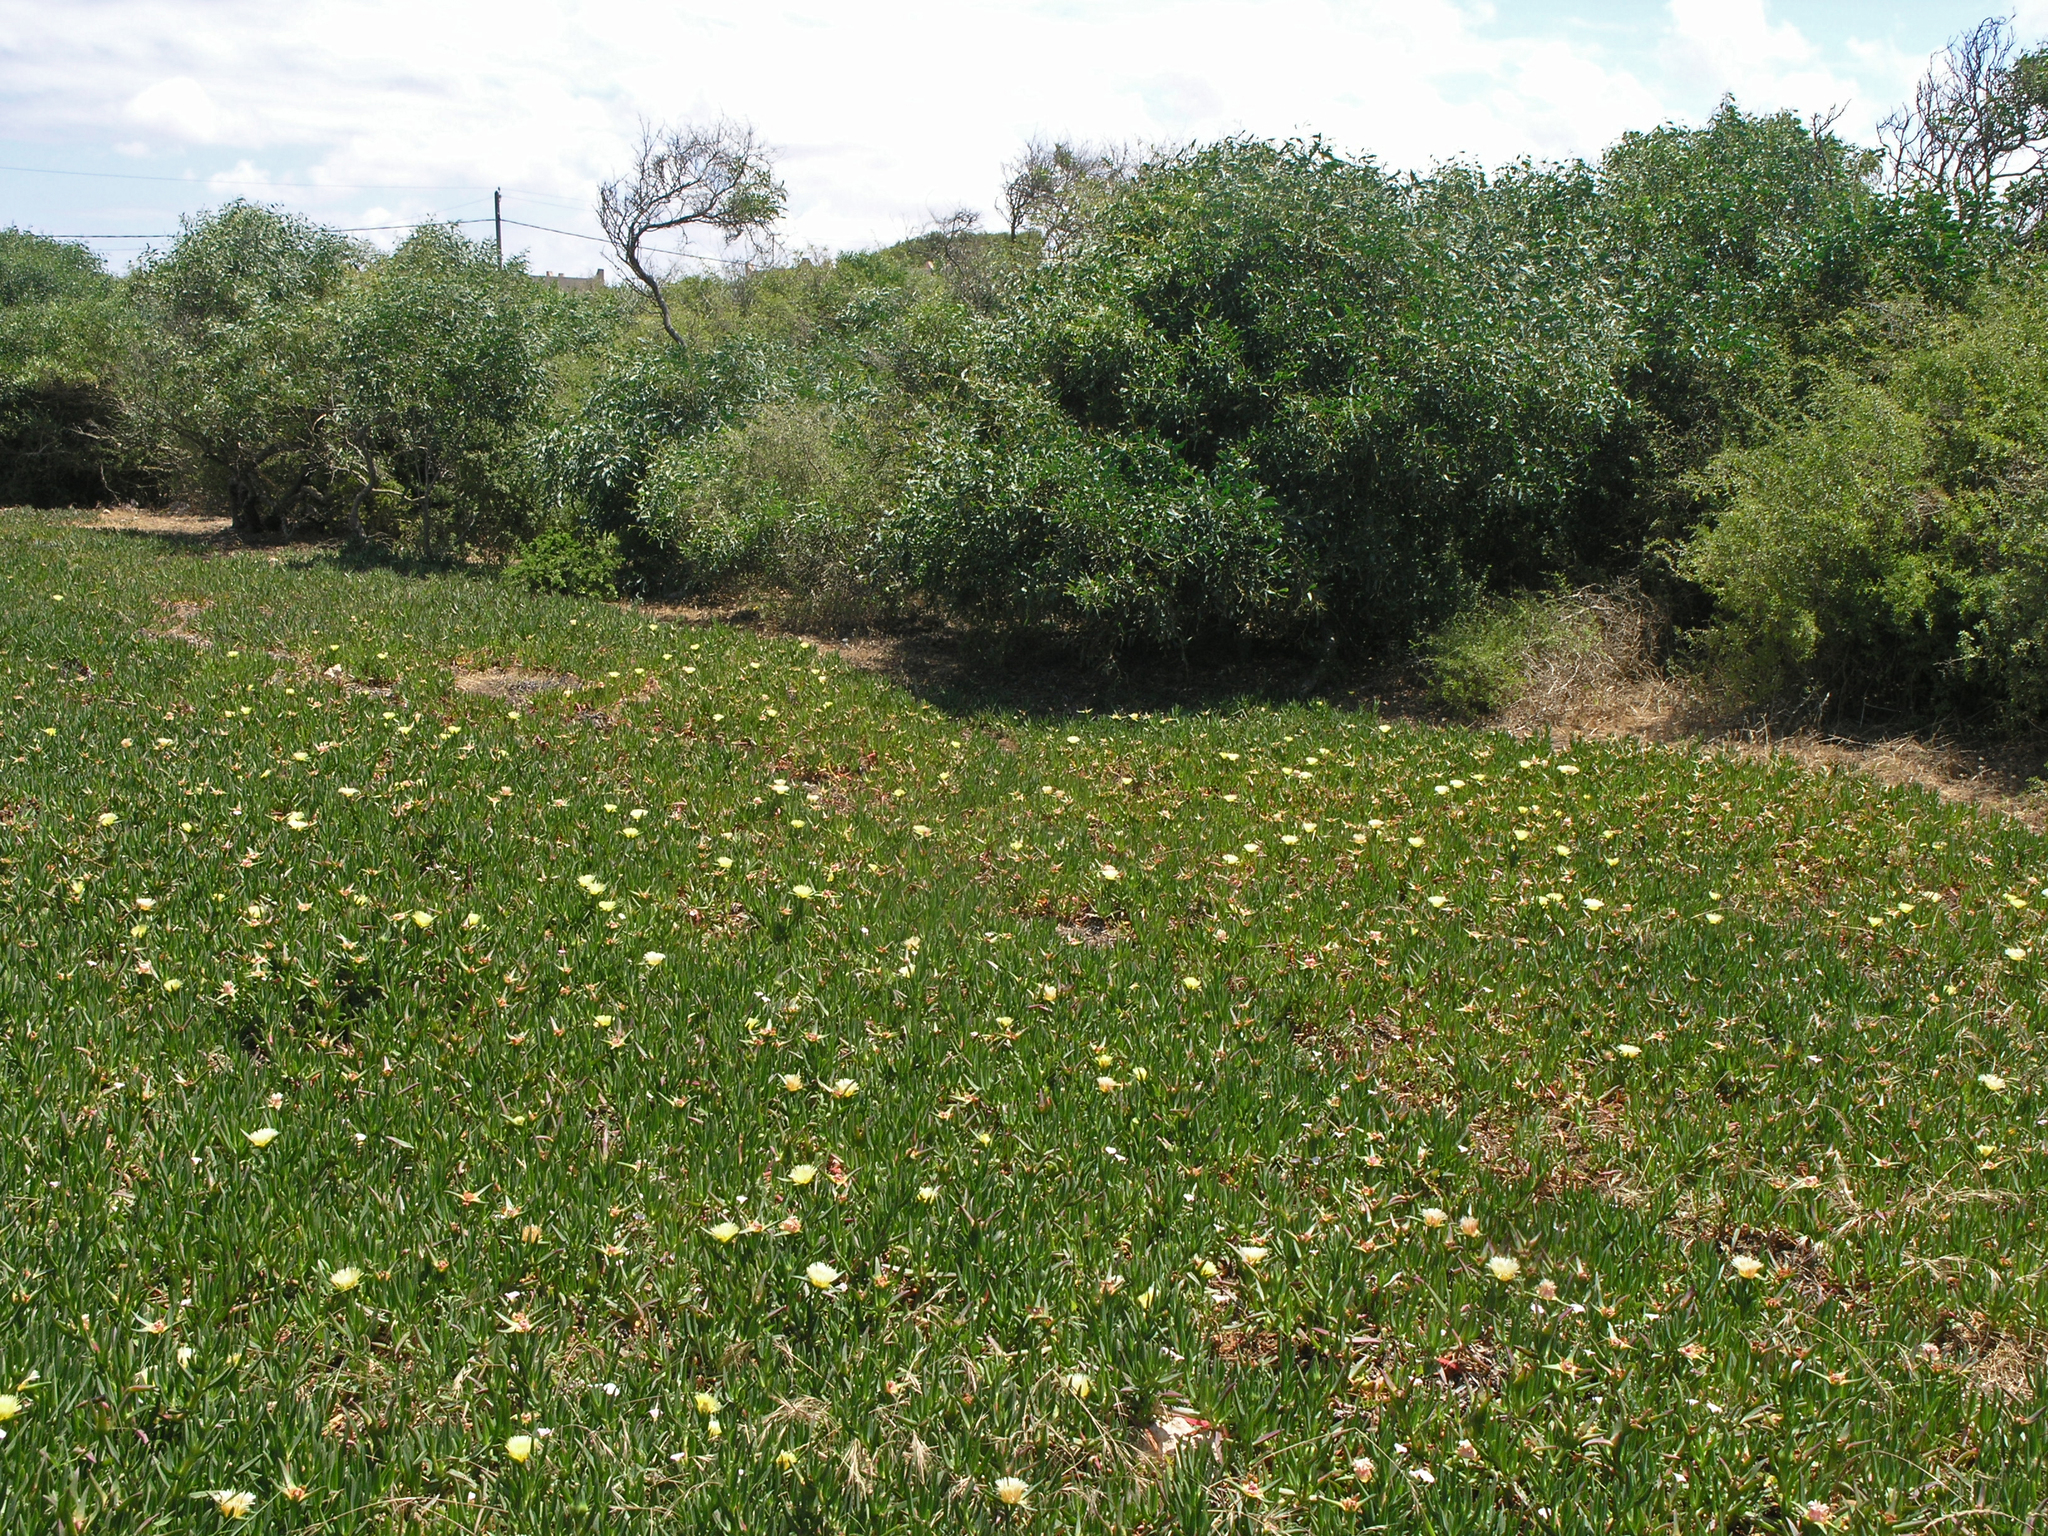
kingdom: Plantae
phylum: Tracheophyta
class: Magnoliopsida
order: Caryophyllales
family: Aizoaceae
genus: Carpobrotus
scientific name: Carpobrotus edulis
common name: Hottentot-fig
